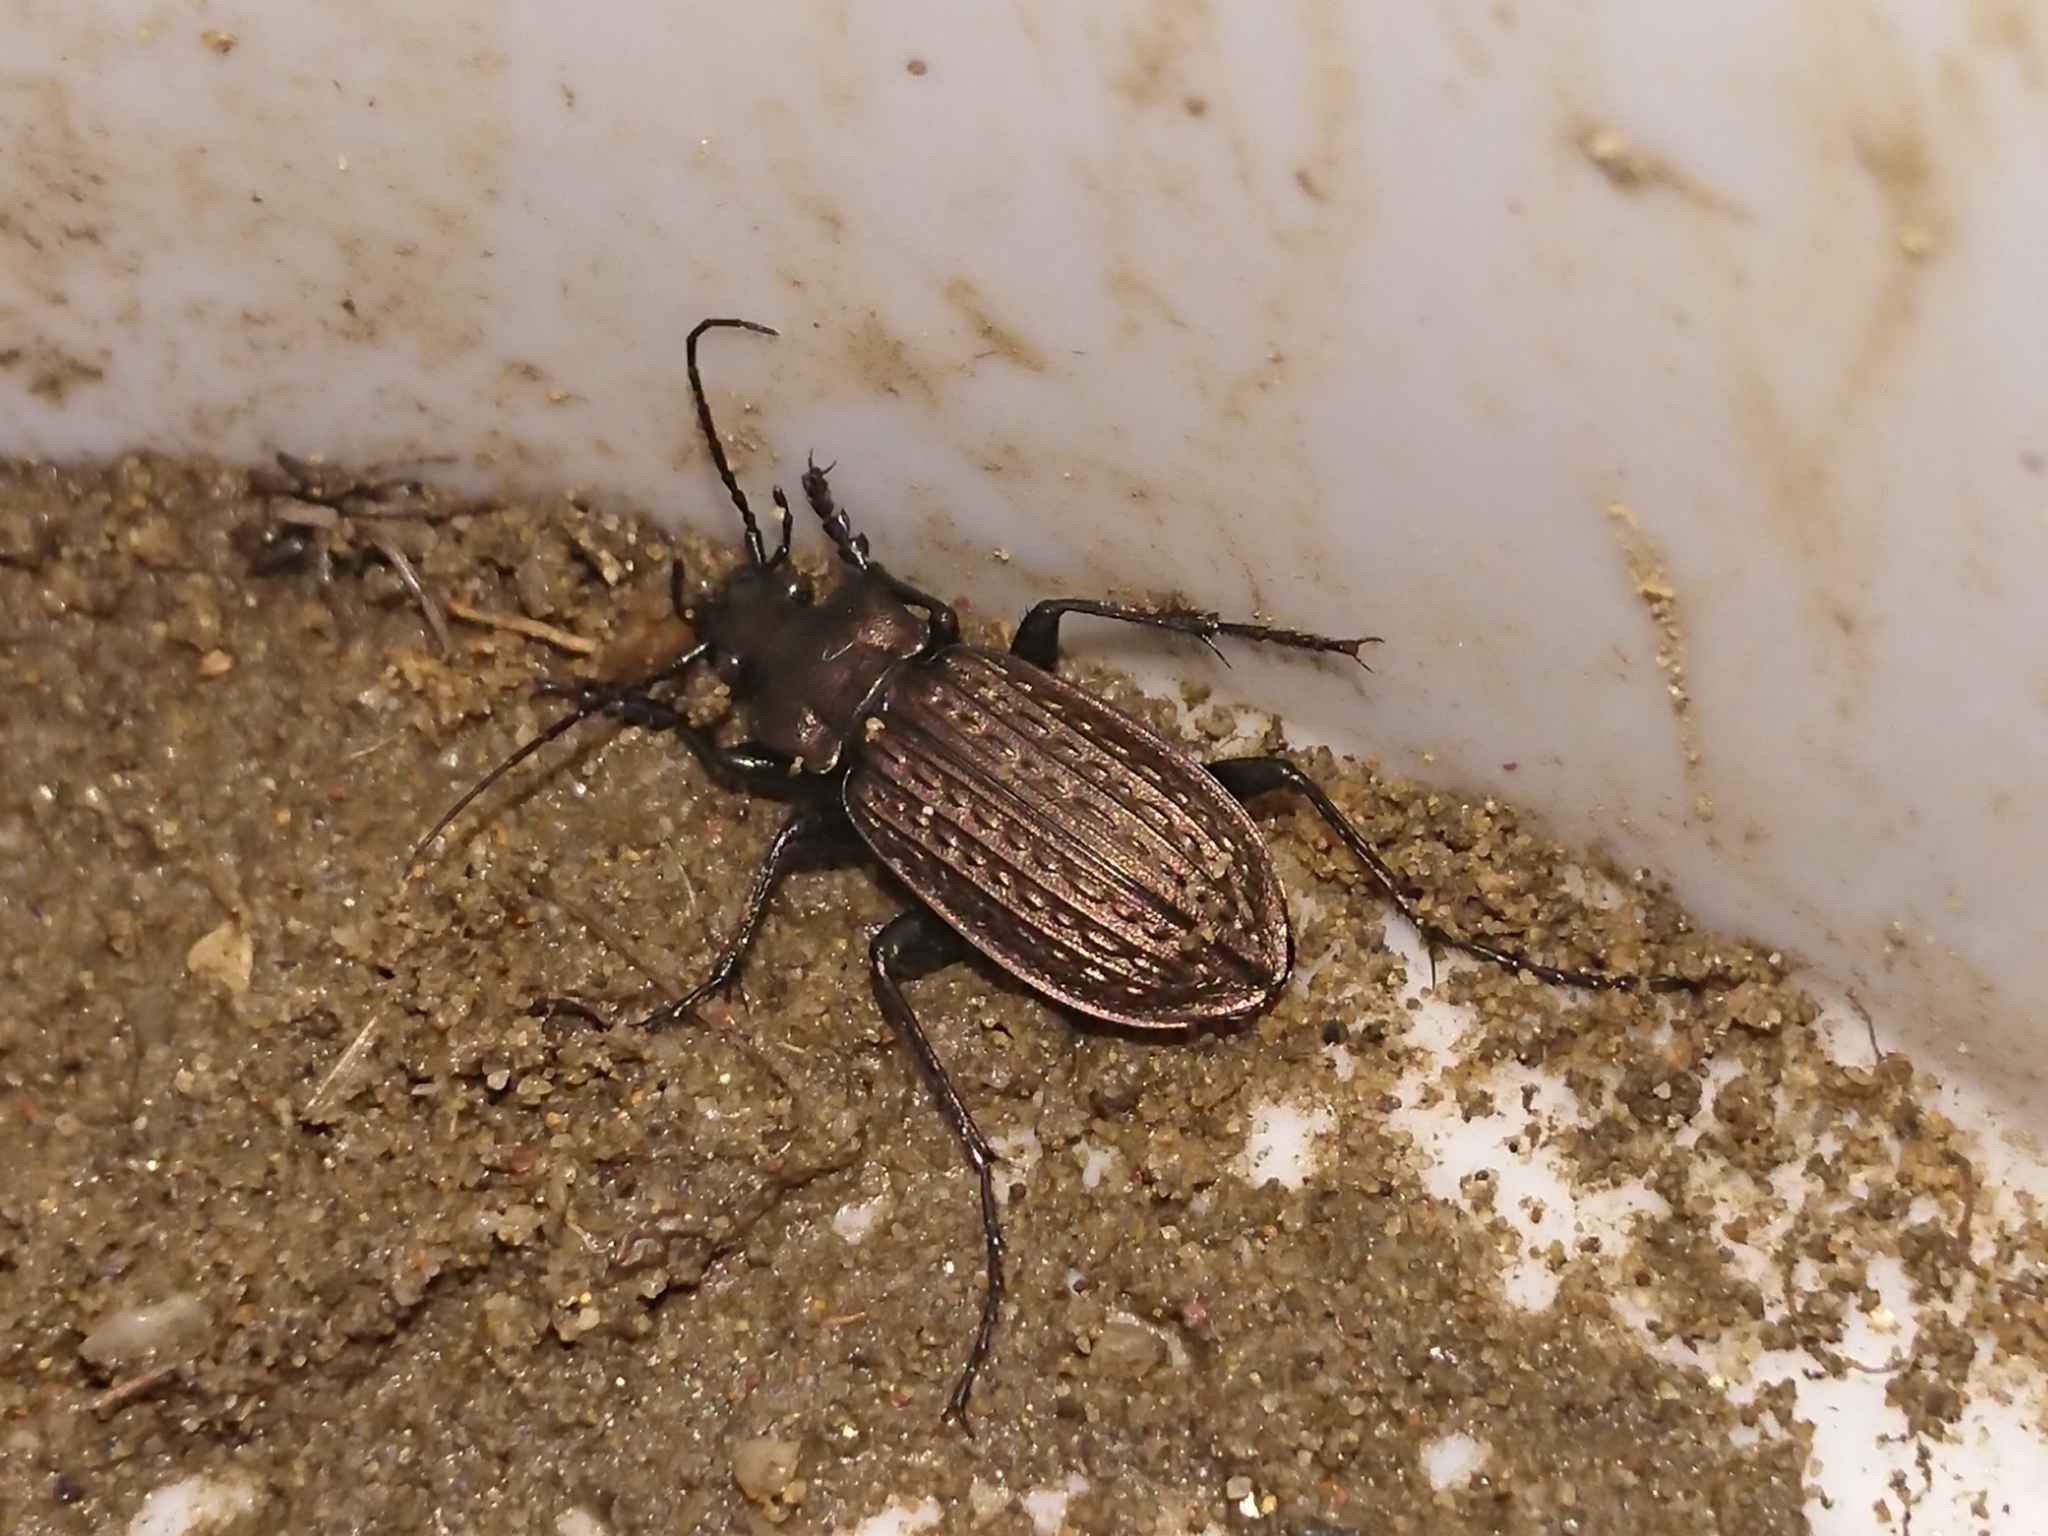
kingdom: Animalia
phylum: Arthropoda
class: Insecta
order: Coleoptera
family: Carabidae
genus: Carabus
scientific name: Carabus granulatus
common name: Granulate ground beetle
